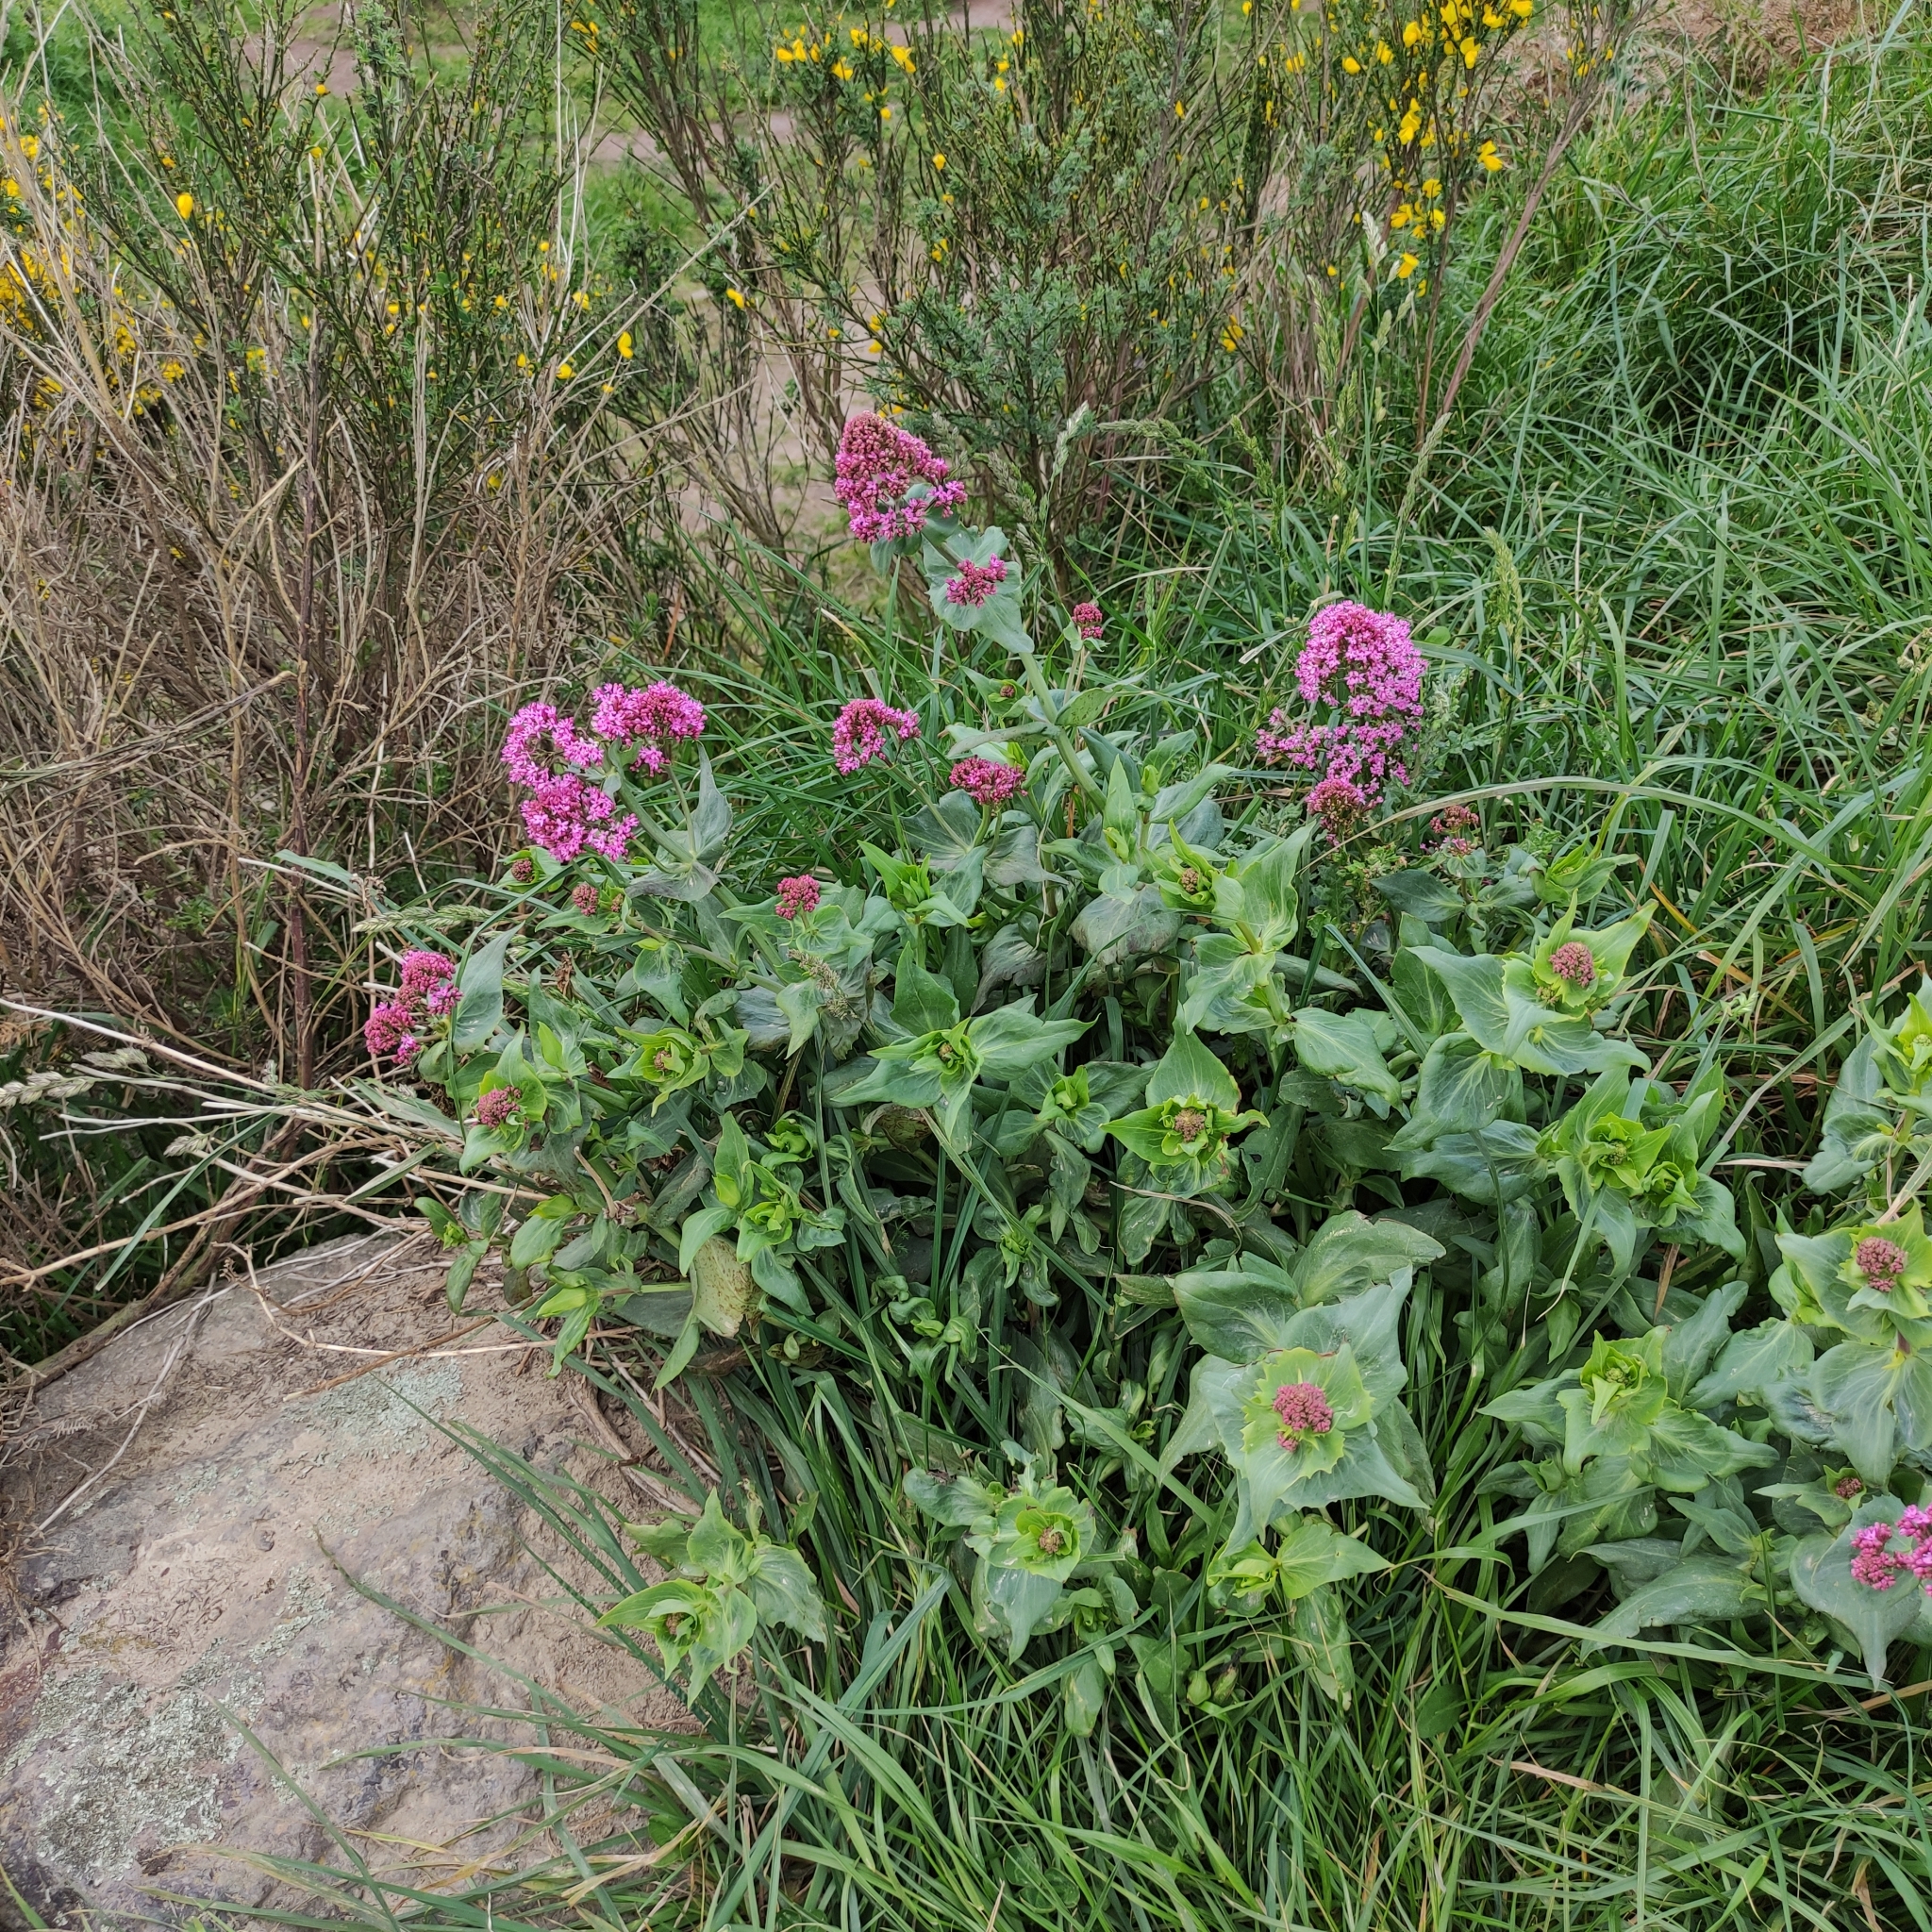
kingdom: Plantae
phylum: Tracheophyta
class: Magnoliopsida
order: Dipsacales
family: Caprifoliaceae
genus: Centranthus
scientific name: Centranthus ruber
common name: Red valerian
